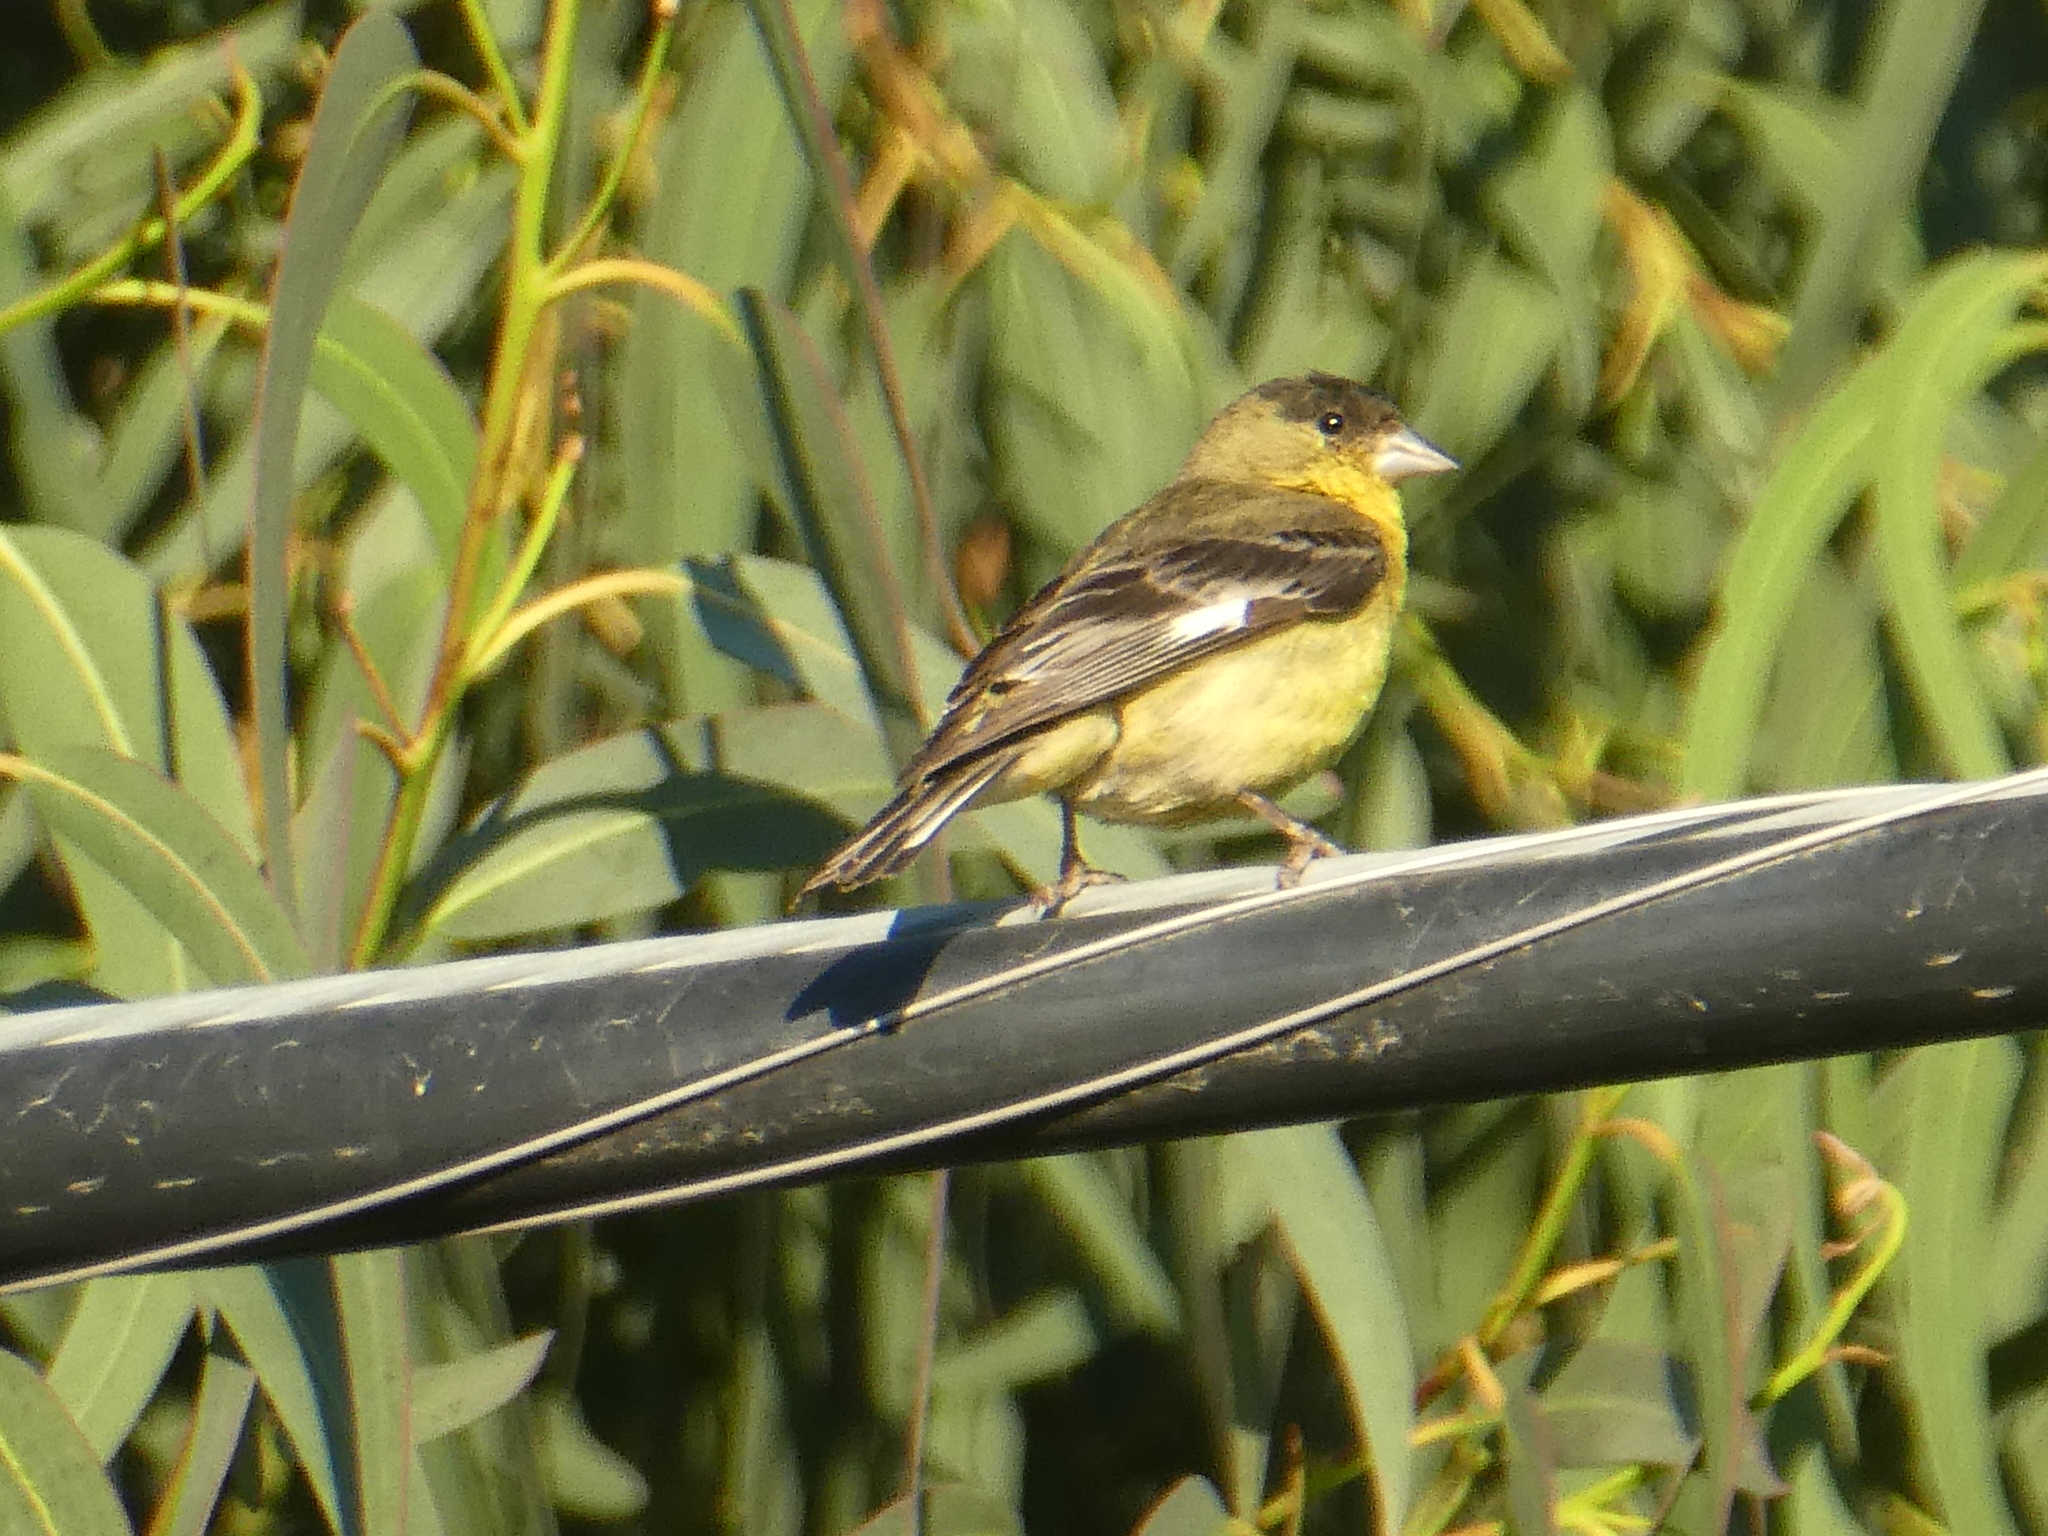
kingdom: Animalia
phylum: Chordata
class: Aves
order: Passeriformes
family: Fringillidae
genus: Spinus
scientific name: Spinus psaltria
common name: Lesser goldfinch
